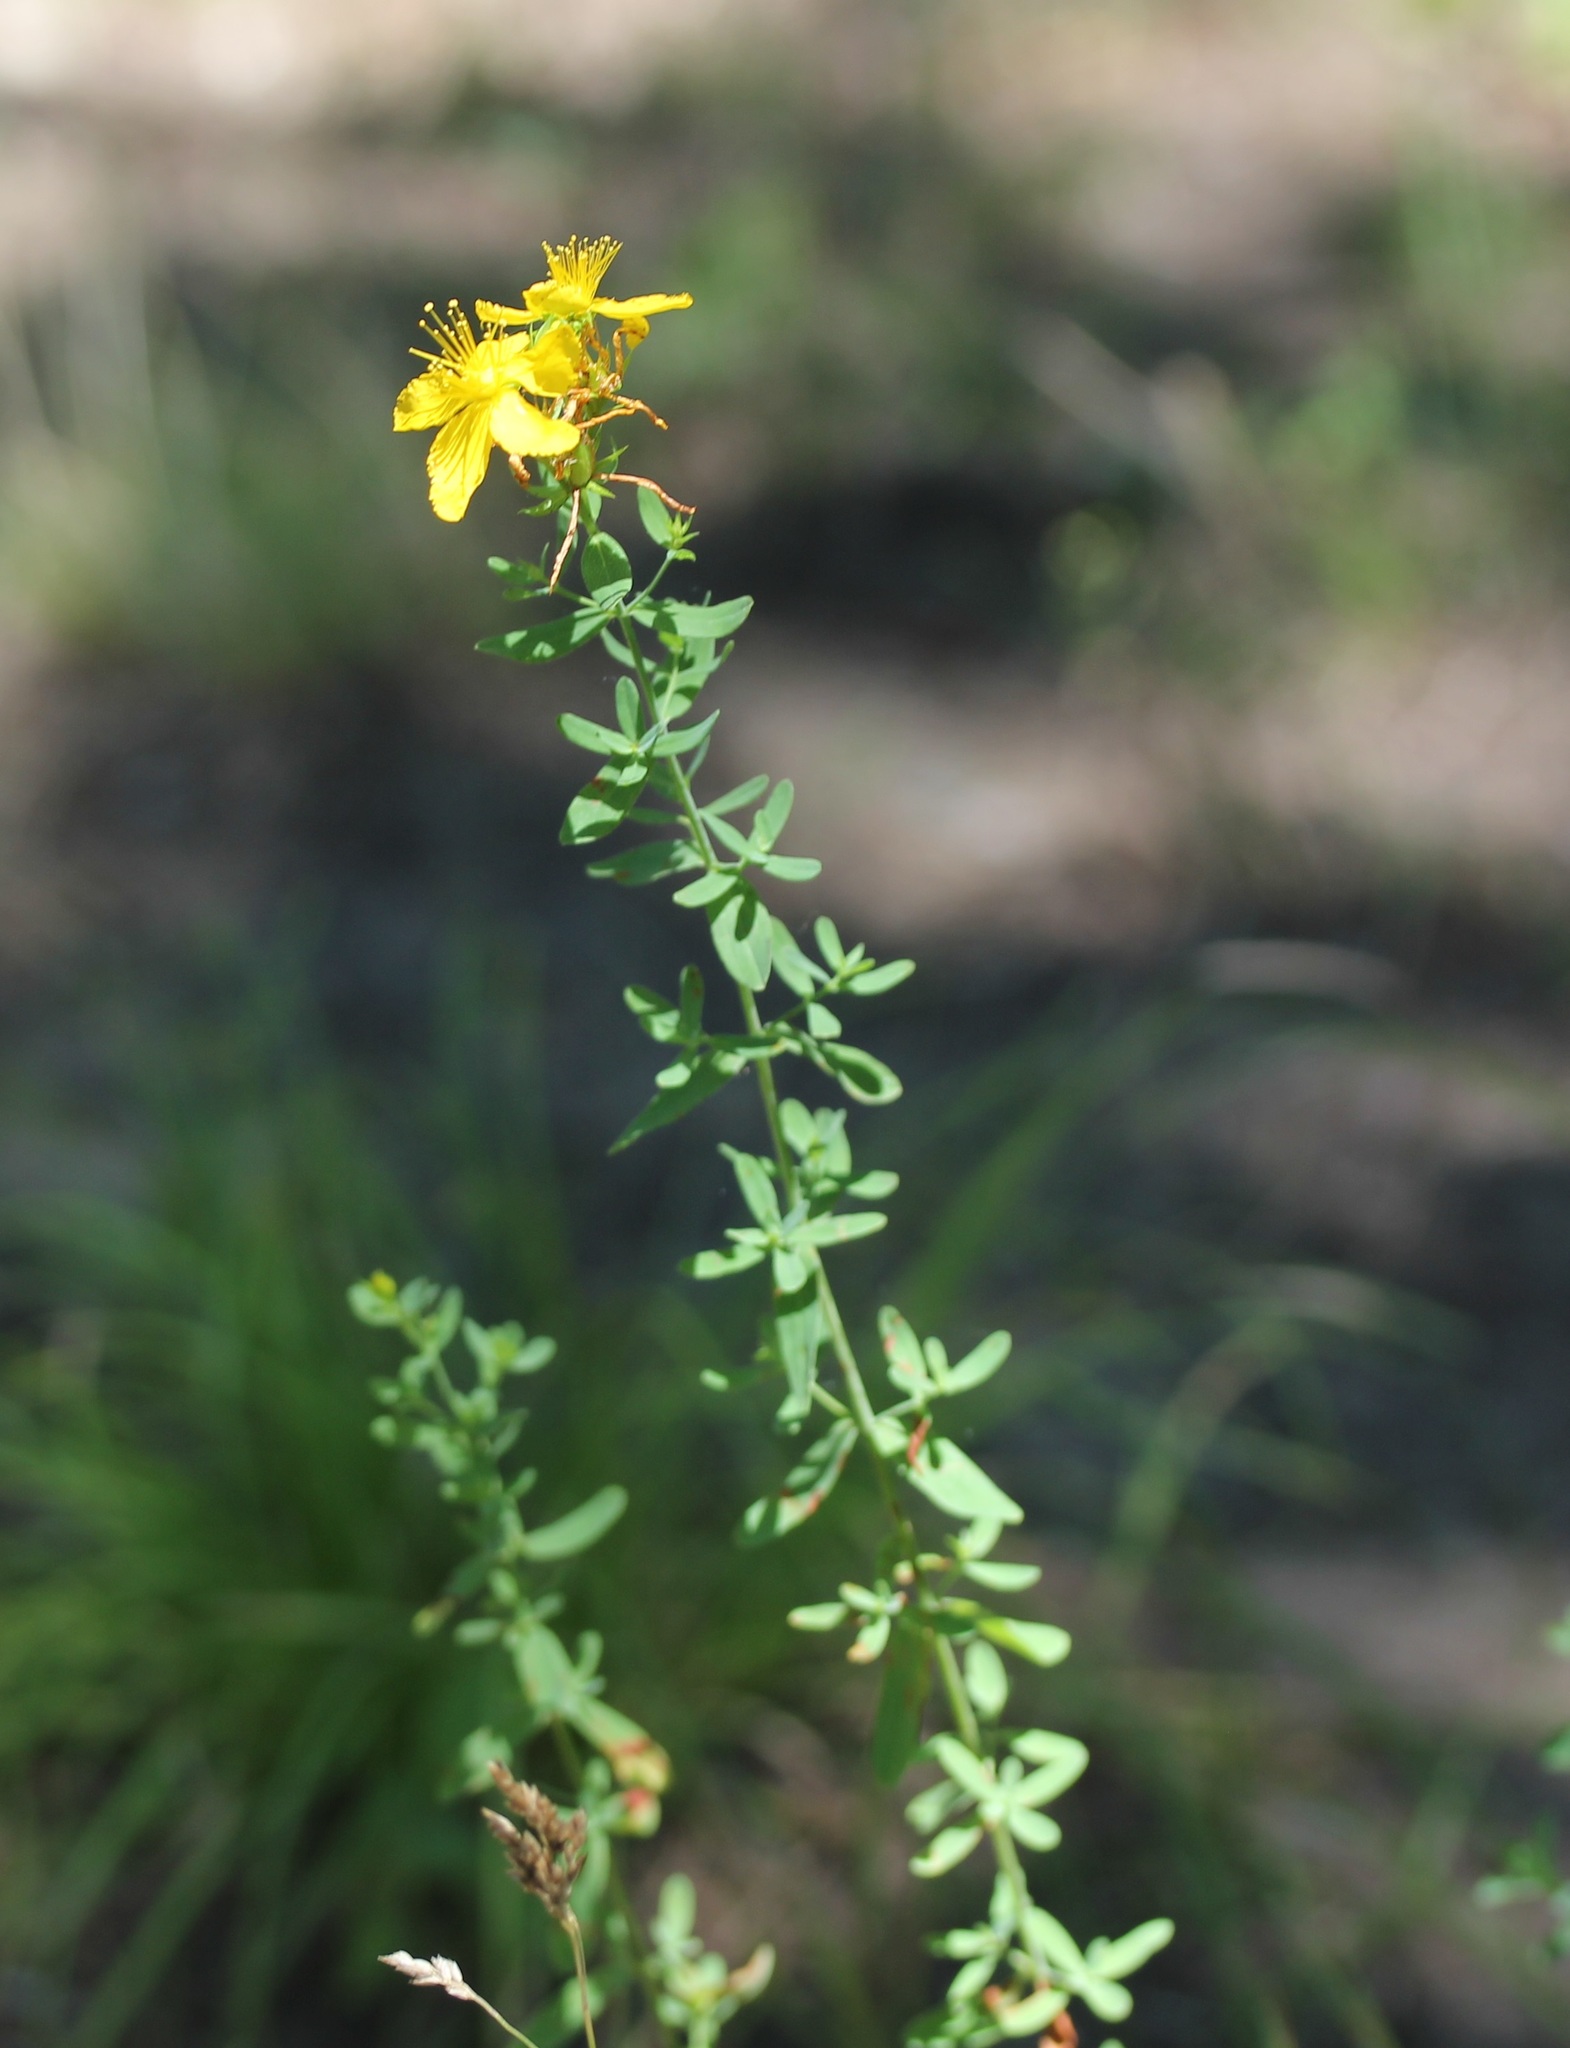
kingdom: Plantae
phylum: Tracheophyta
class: Magnoliopsida
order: Malpighiales
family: Hypericaceae
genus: Hypericum
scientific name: Hypericum perforatum
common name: Common st. johnswort
